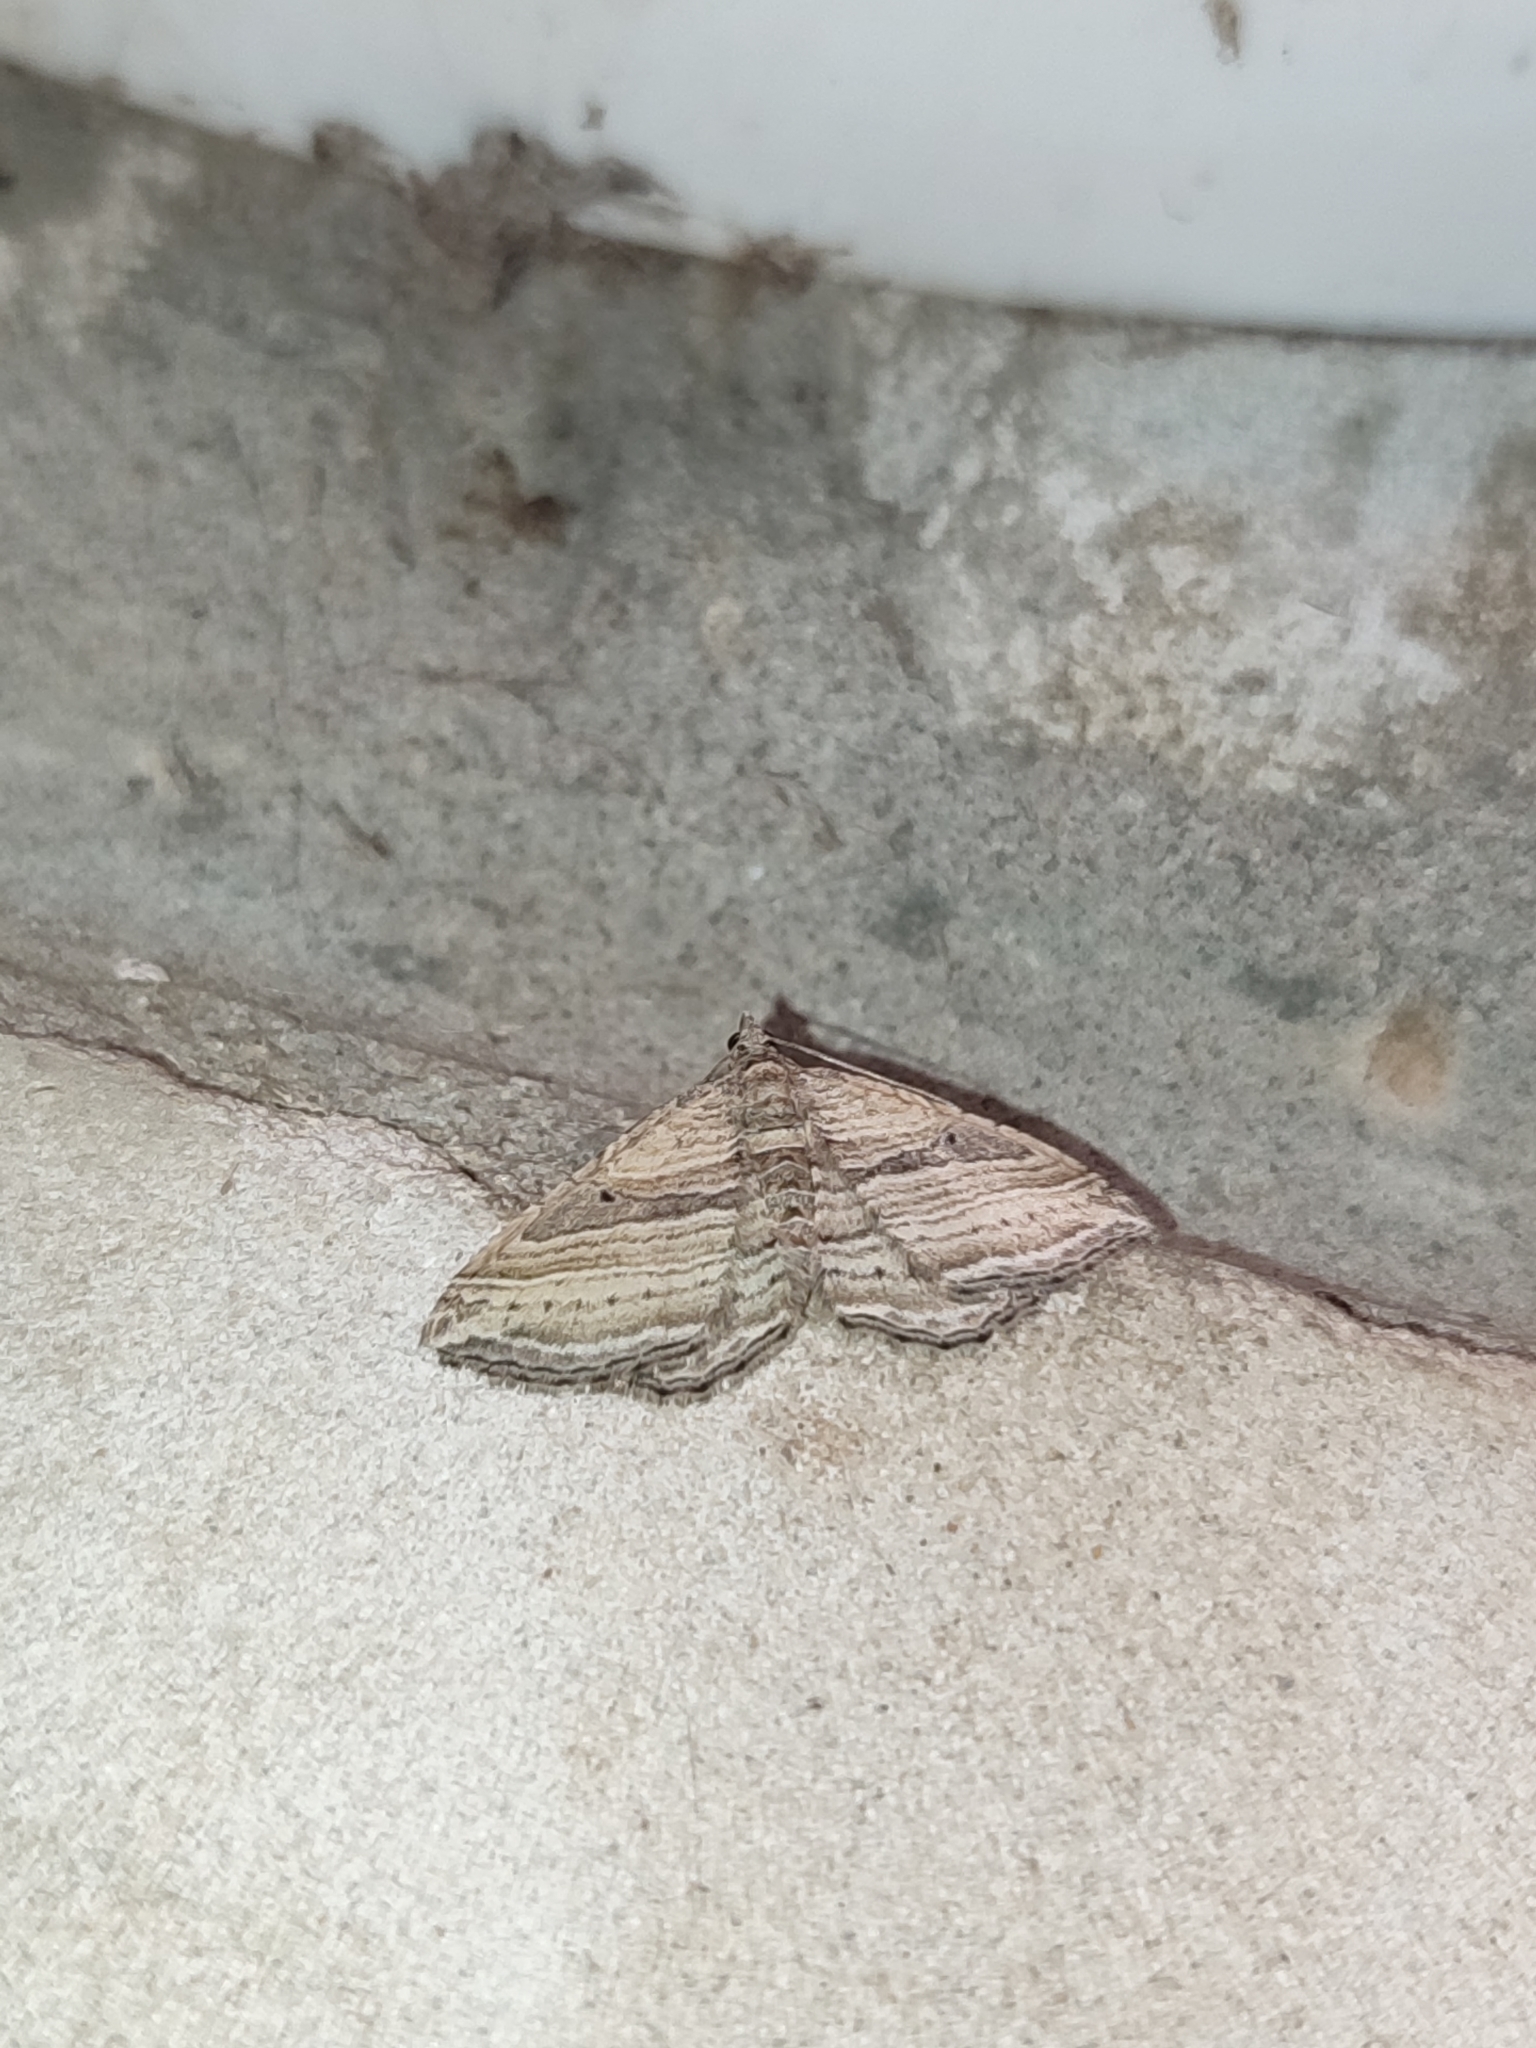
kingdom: Animalia
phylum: Arthropoda
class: Insecta
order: Lepidoptera
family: Geometridae
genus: Costaconvexa
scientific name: Costaconvexa polygrammata
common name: Many-lined
